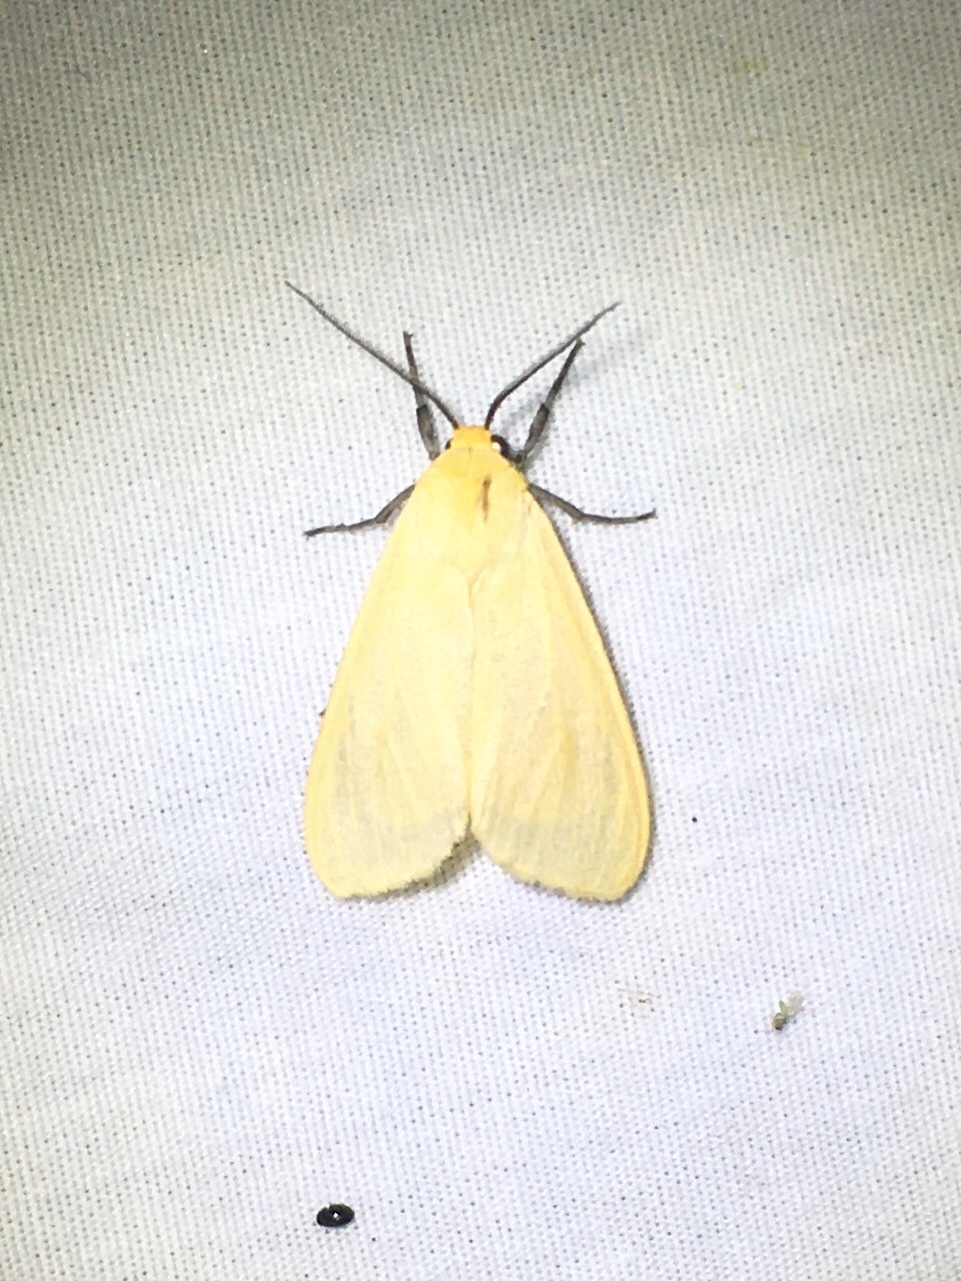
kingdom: Animalia
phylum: Arthropoda
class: Insecta
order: Lepidoptera
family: Erebidae
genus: Pareuchaetes
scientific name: Pareuchaetes insulata
